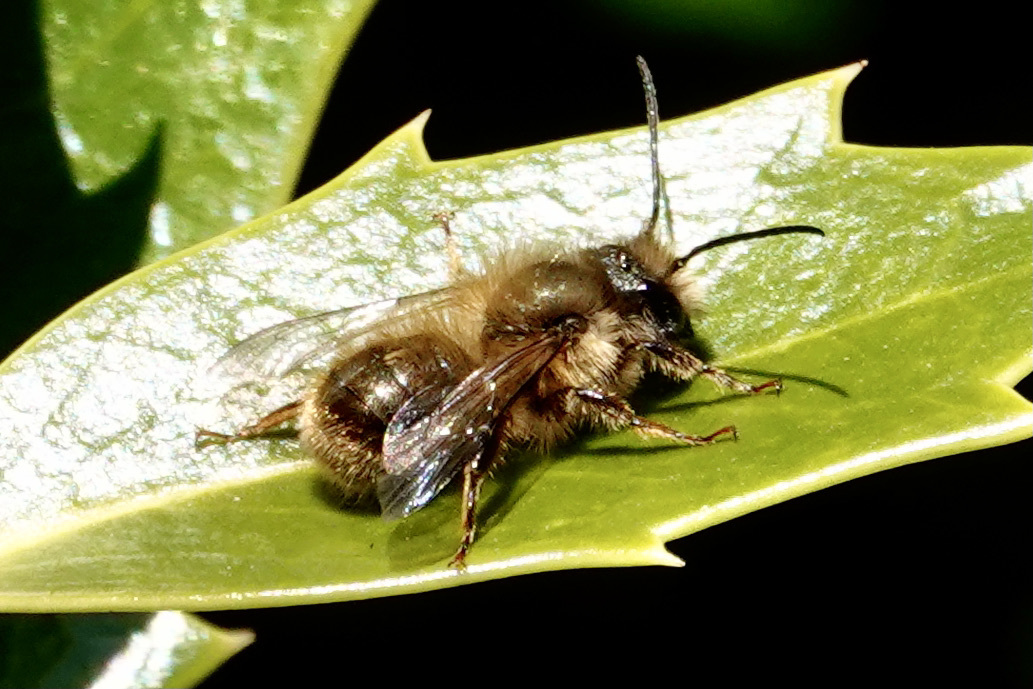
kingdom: Animalia
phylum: Arthropoda
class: Insecta
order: Hymenoptera
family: Megachilidae
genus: Osmia
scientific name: Osmia taurus
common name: Taurus mason bee
